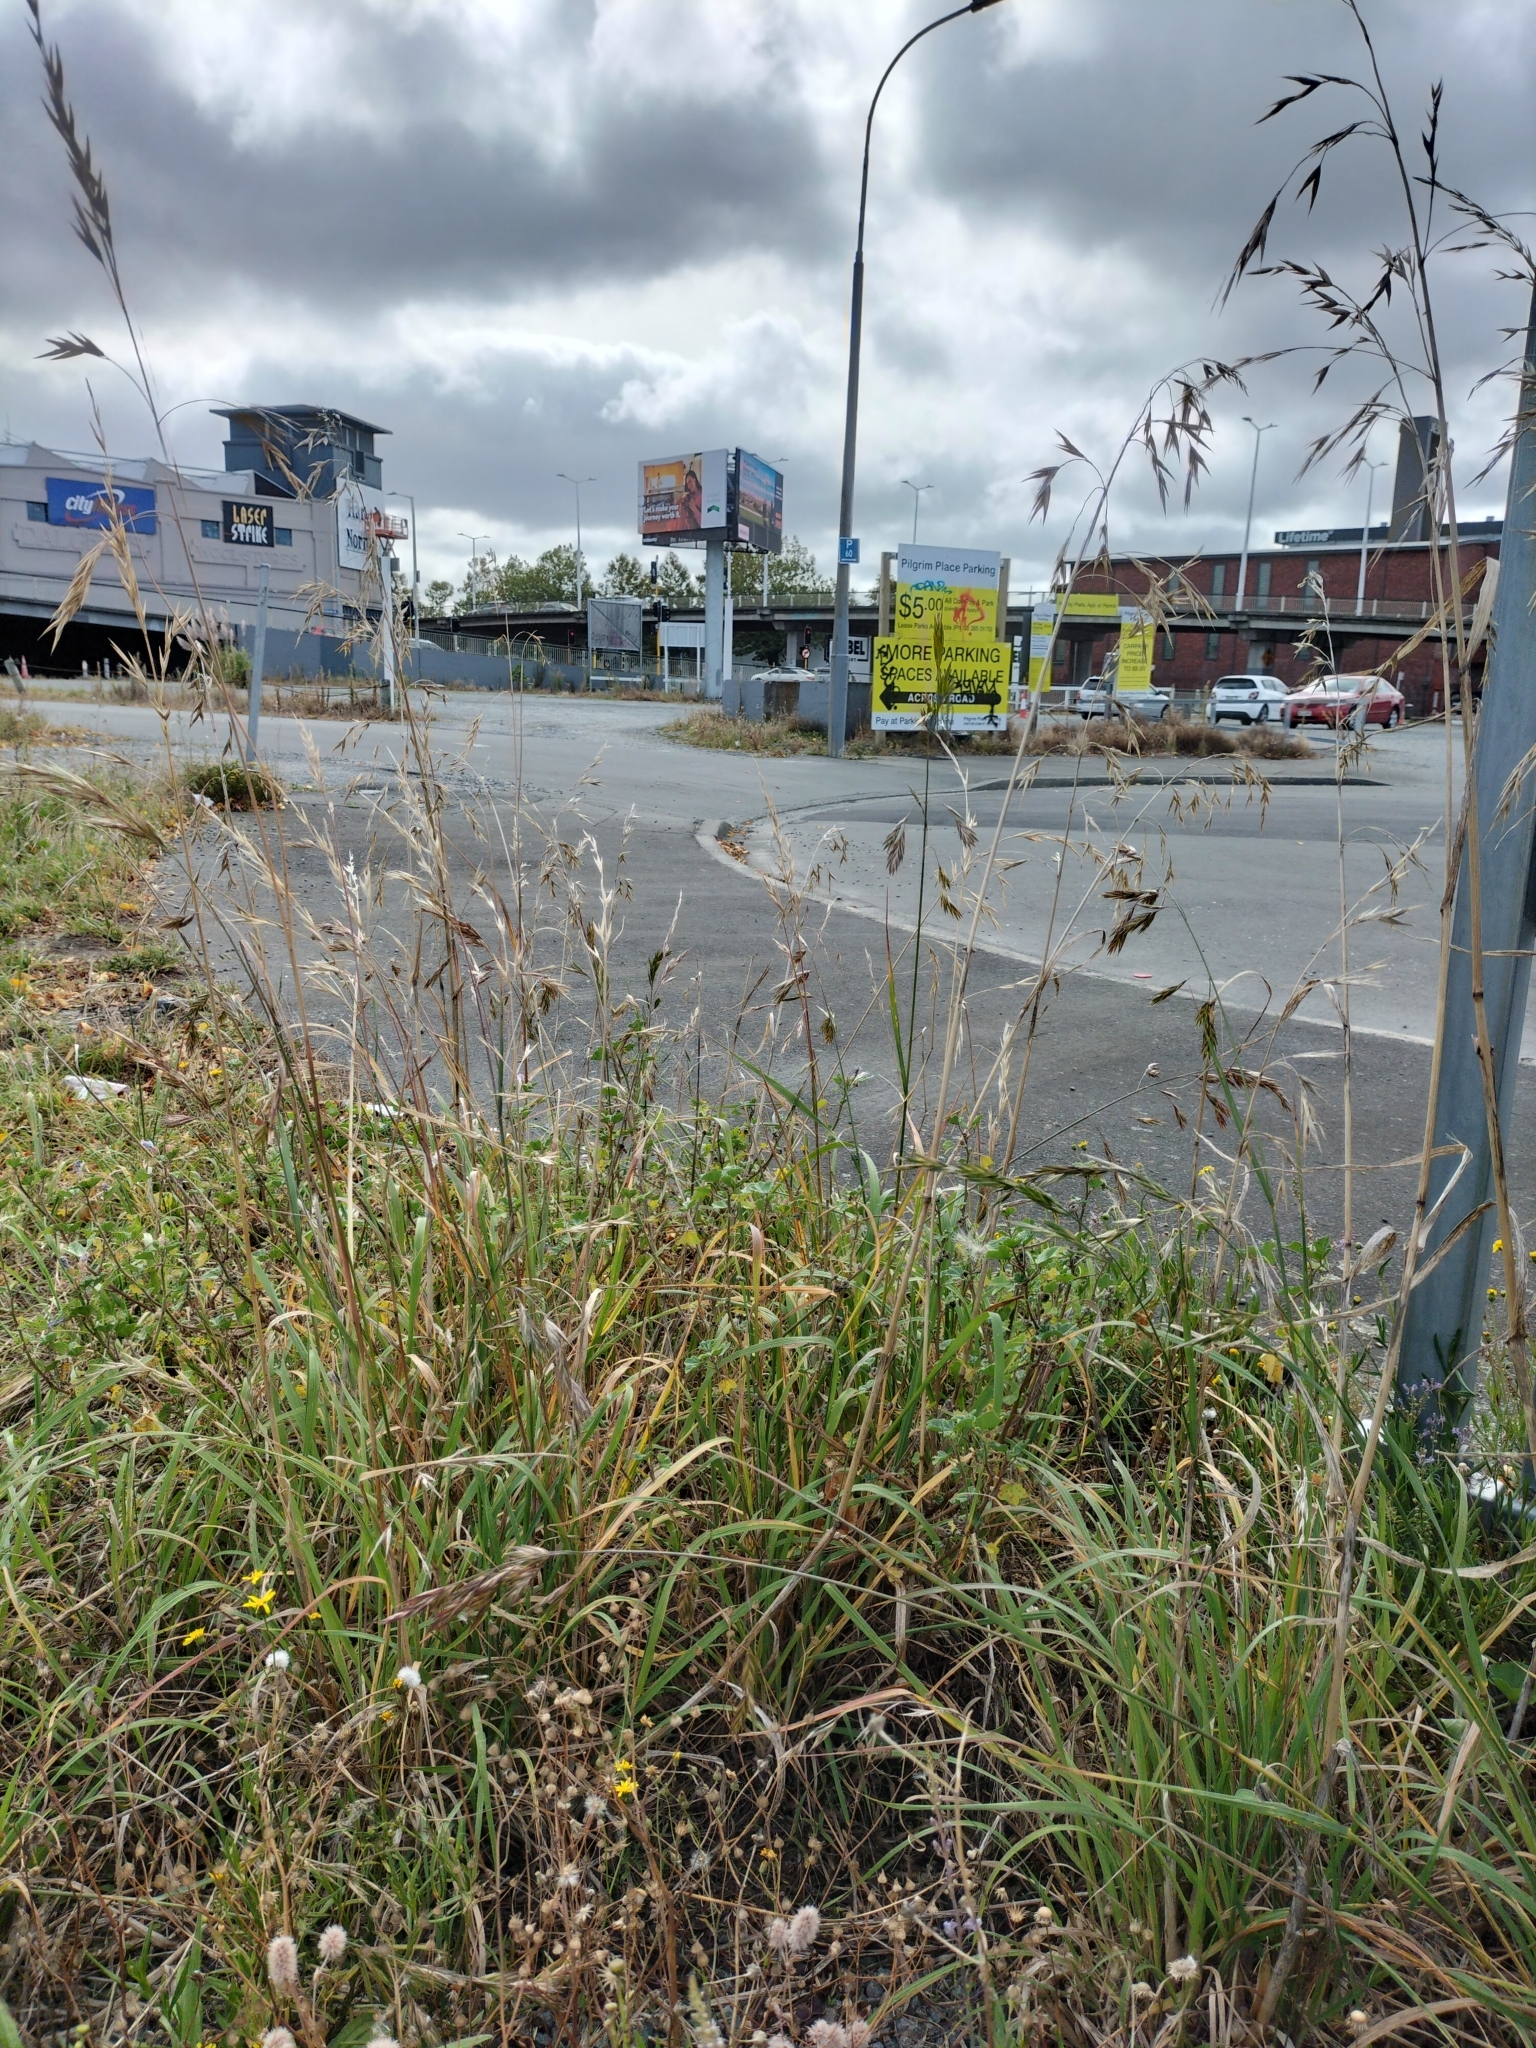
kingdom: Plantae
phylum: Tracheophyta
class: Liliopsida
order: Poales
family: Poaceae
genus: Bromus
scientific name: Bromus catharticus
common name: Rescuegrass
